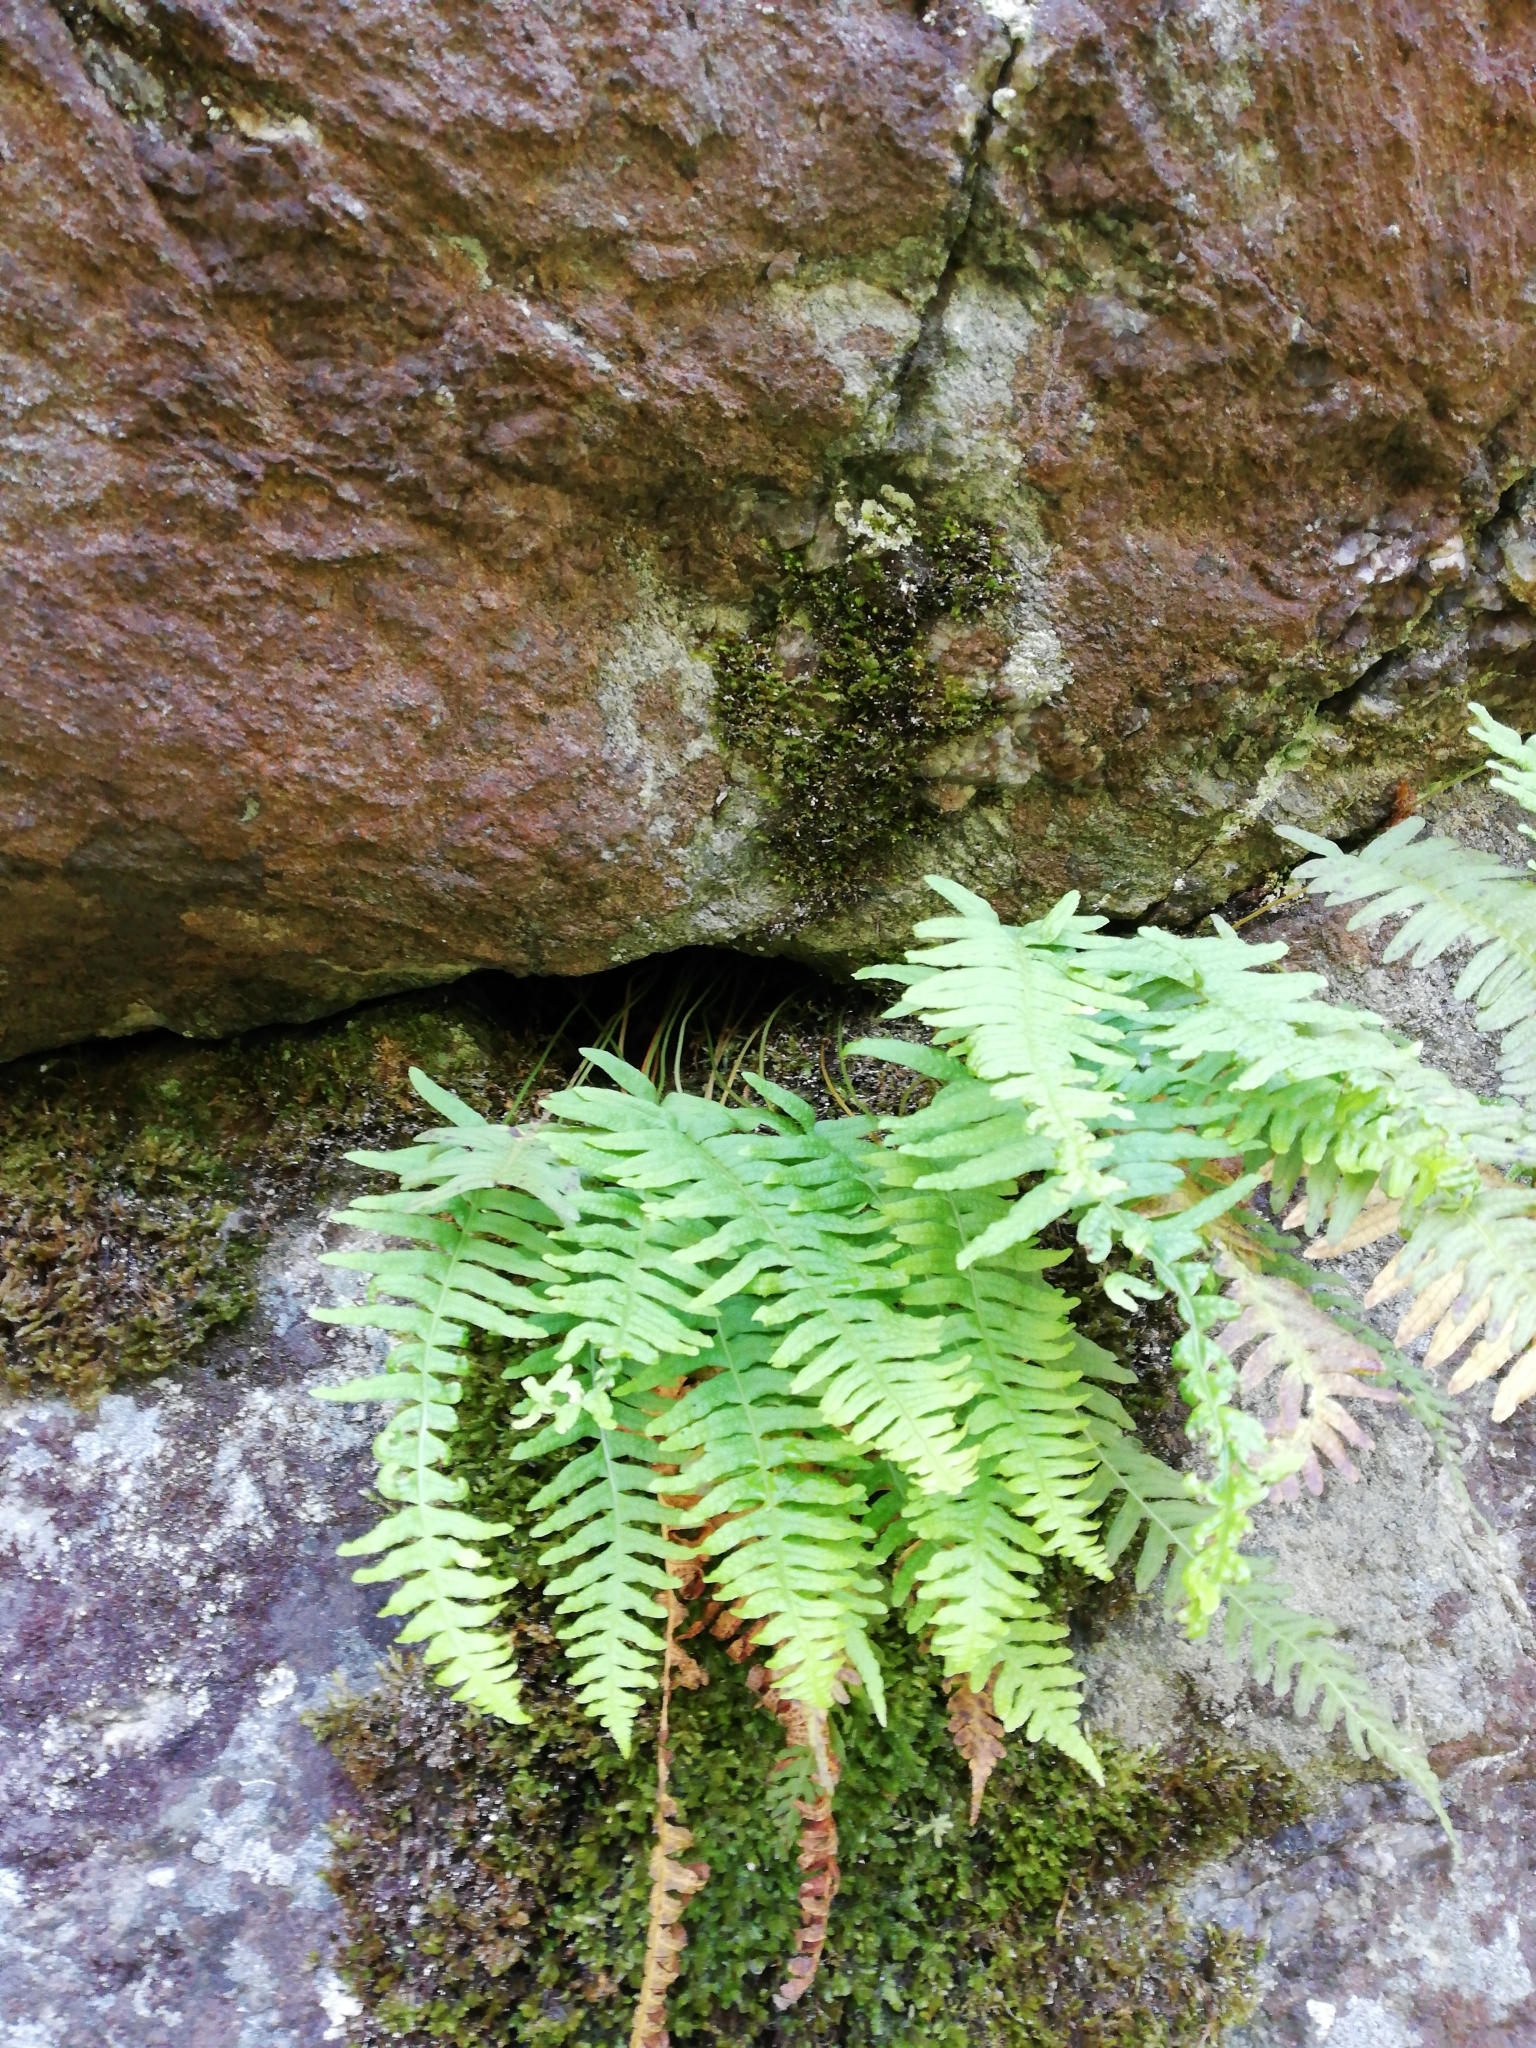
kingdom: Plantae
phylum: Tracheophyta
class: Polypodiopsida
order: Polypodiales
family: Polypodiaceae
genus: Polypodium
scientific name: Polypodium vulgare
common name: Common polypody
